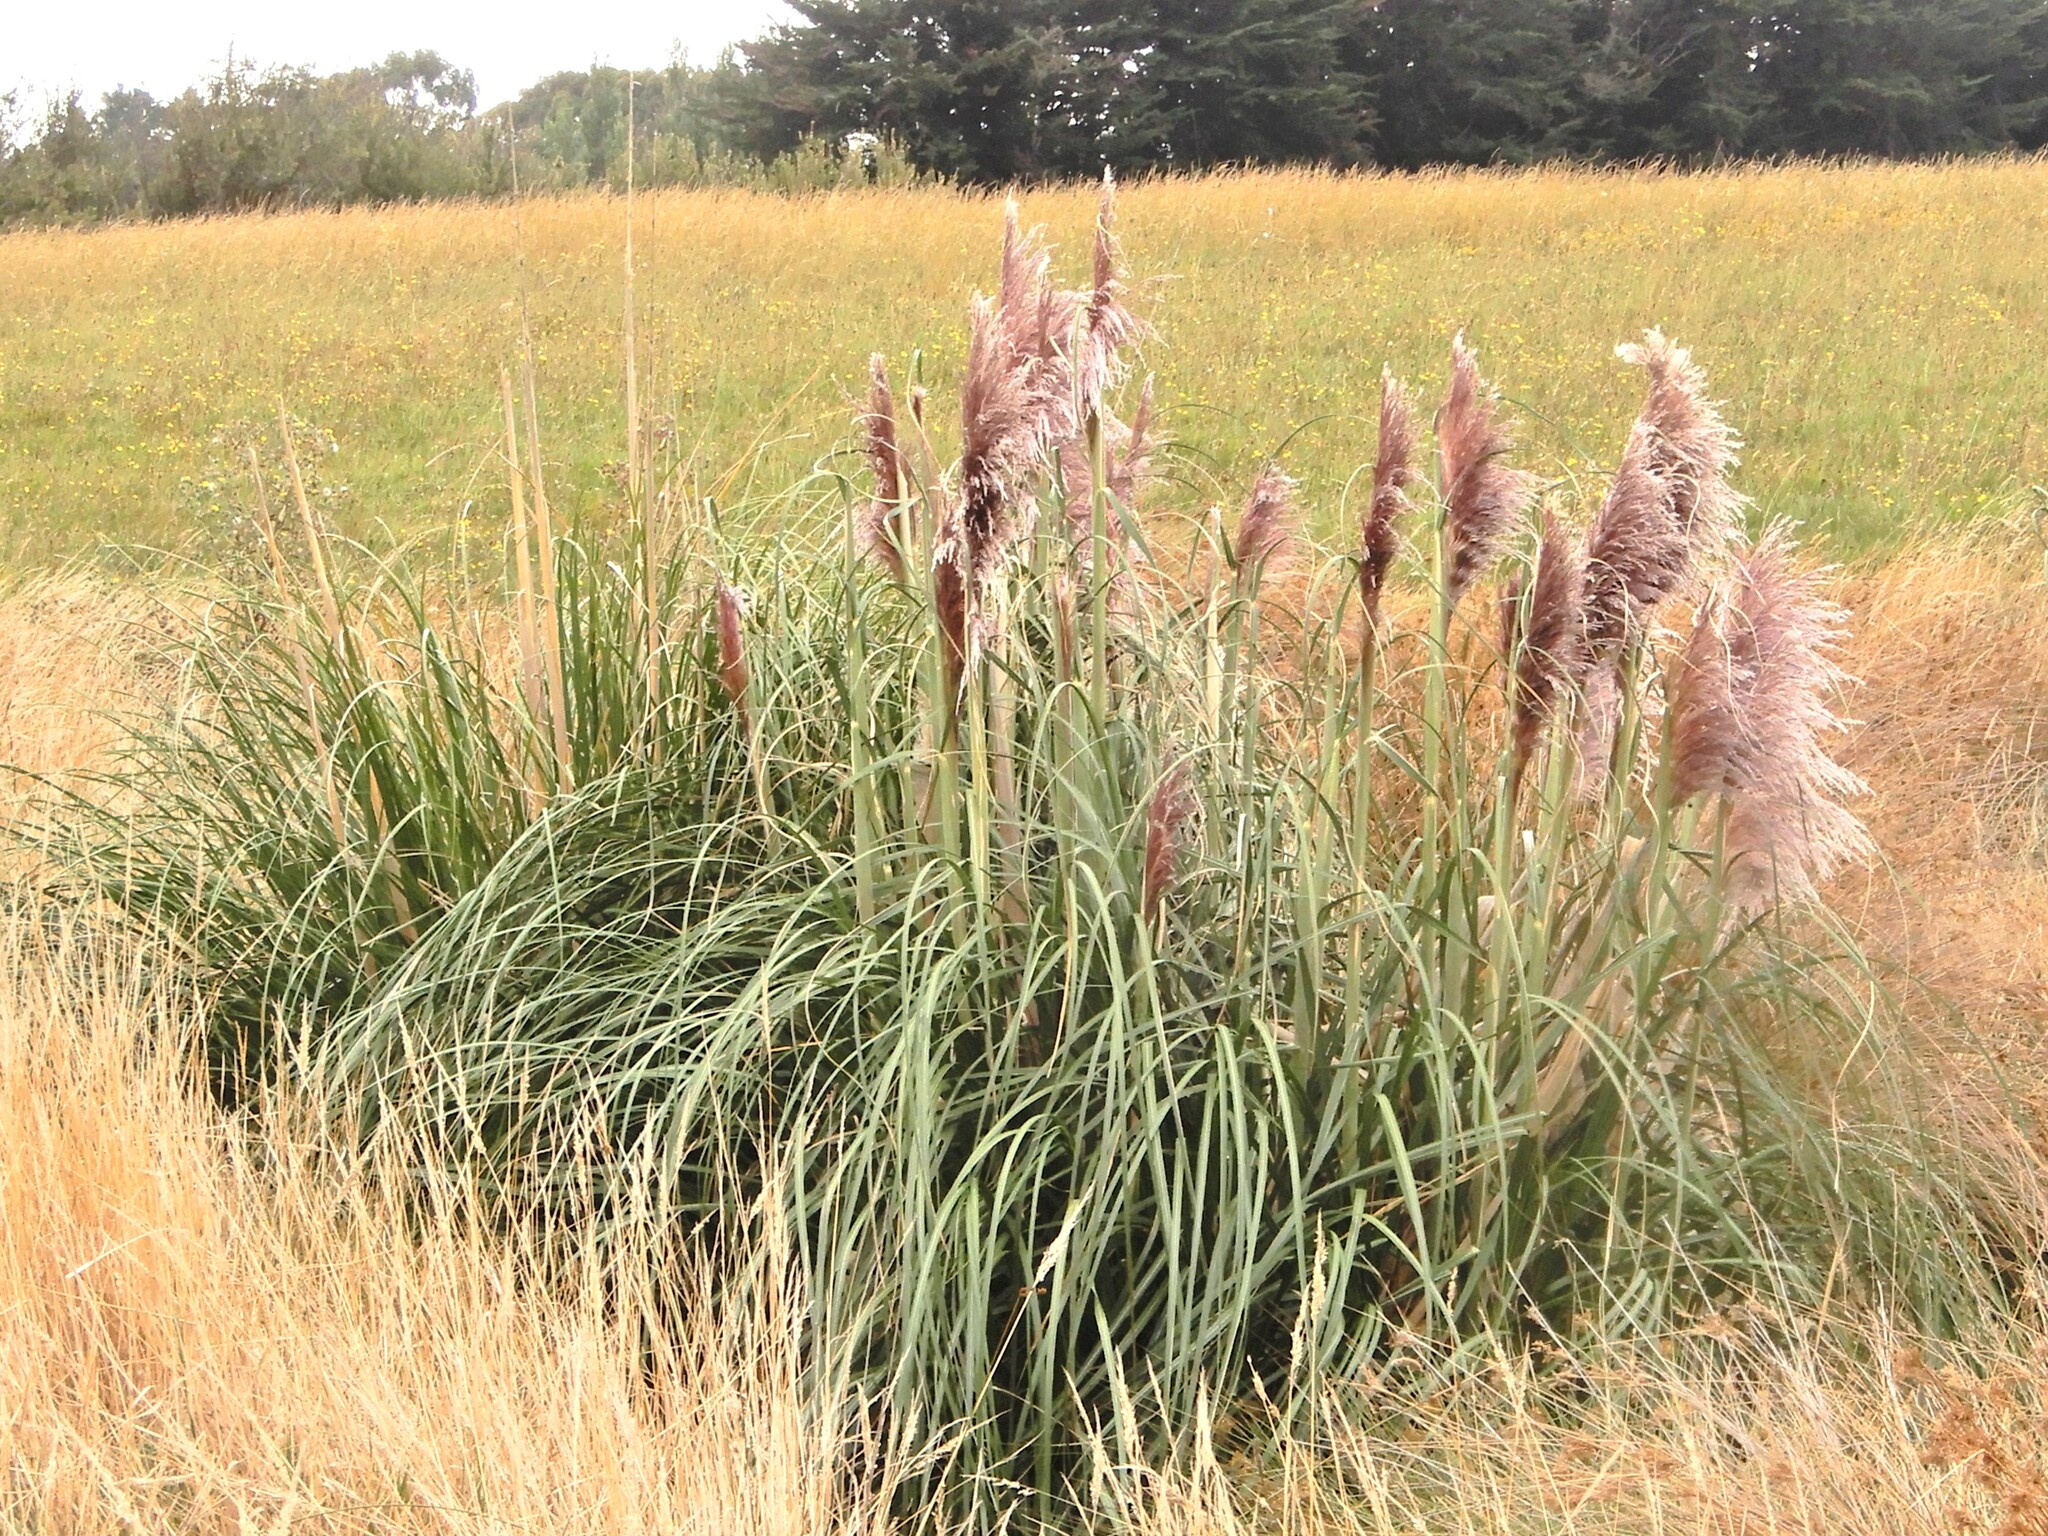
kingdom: Plantae
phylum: Tracheophyta
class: Liliopsida
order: Poales
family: Poaceae
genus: Cortaderia
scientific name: Cortaderia jubata
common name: Purple pampas grass
